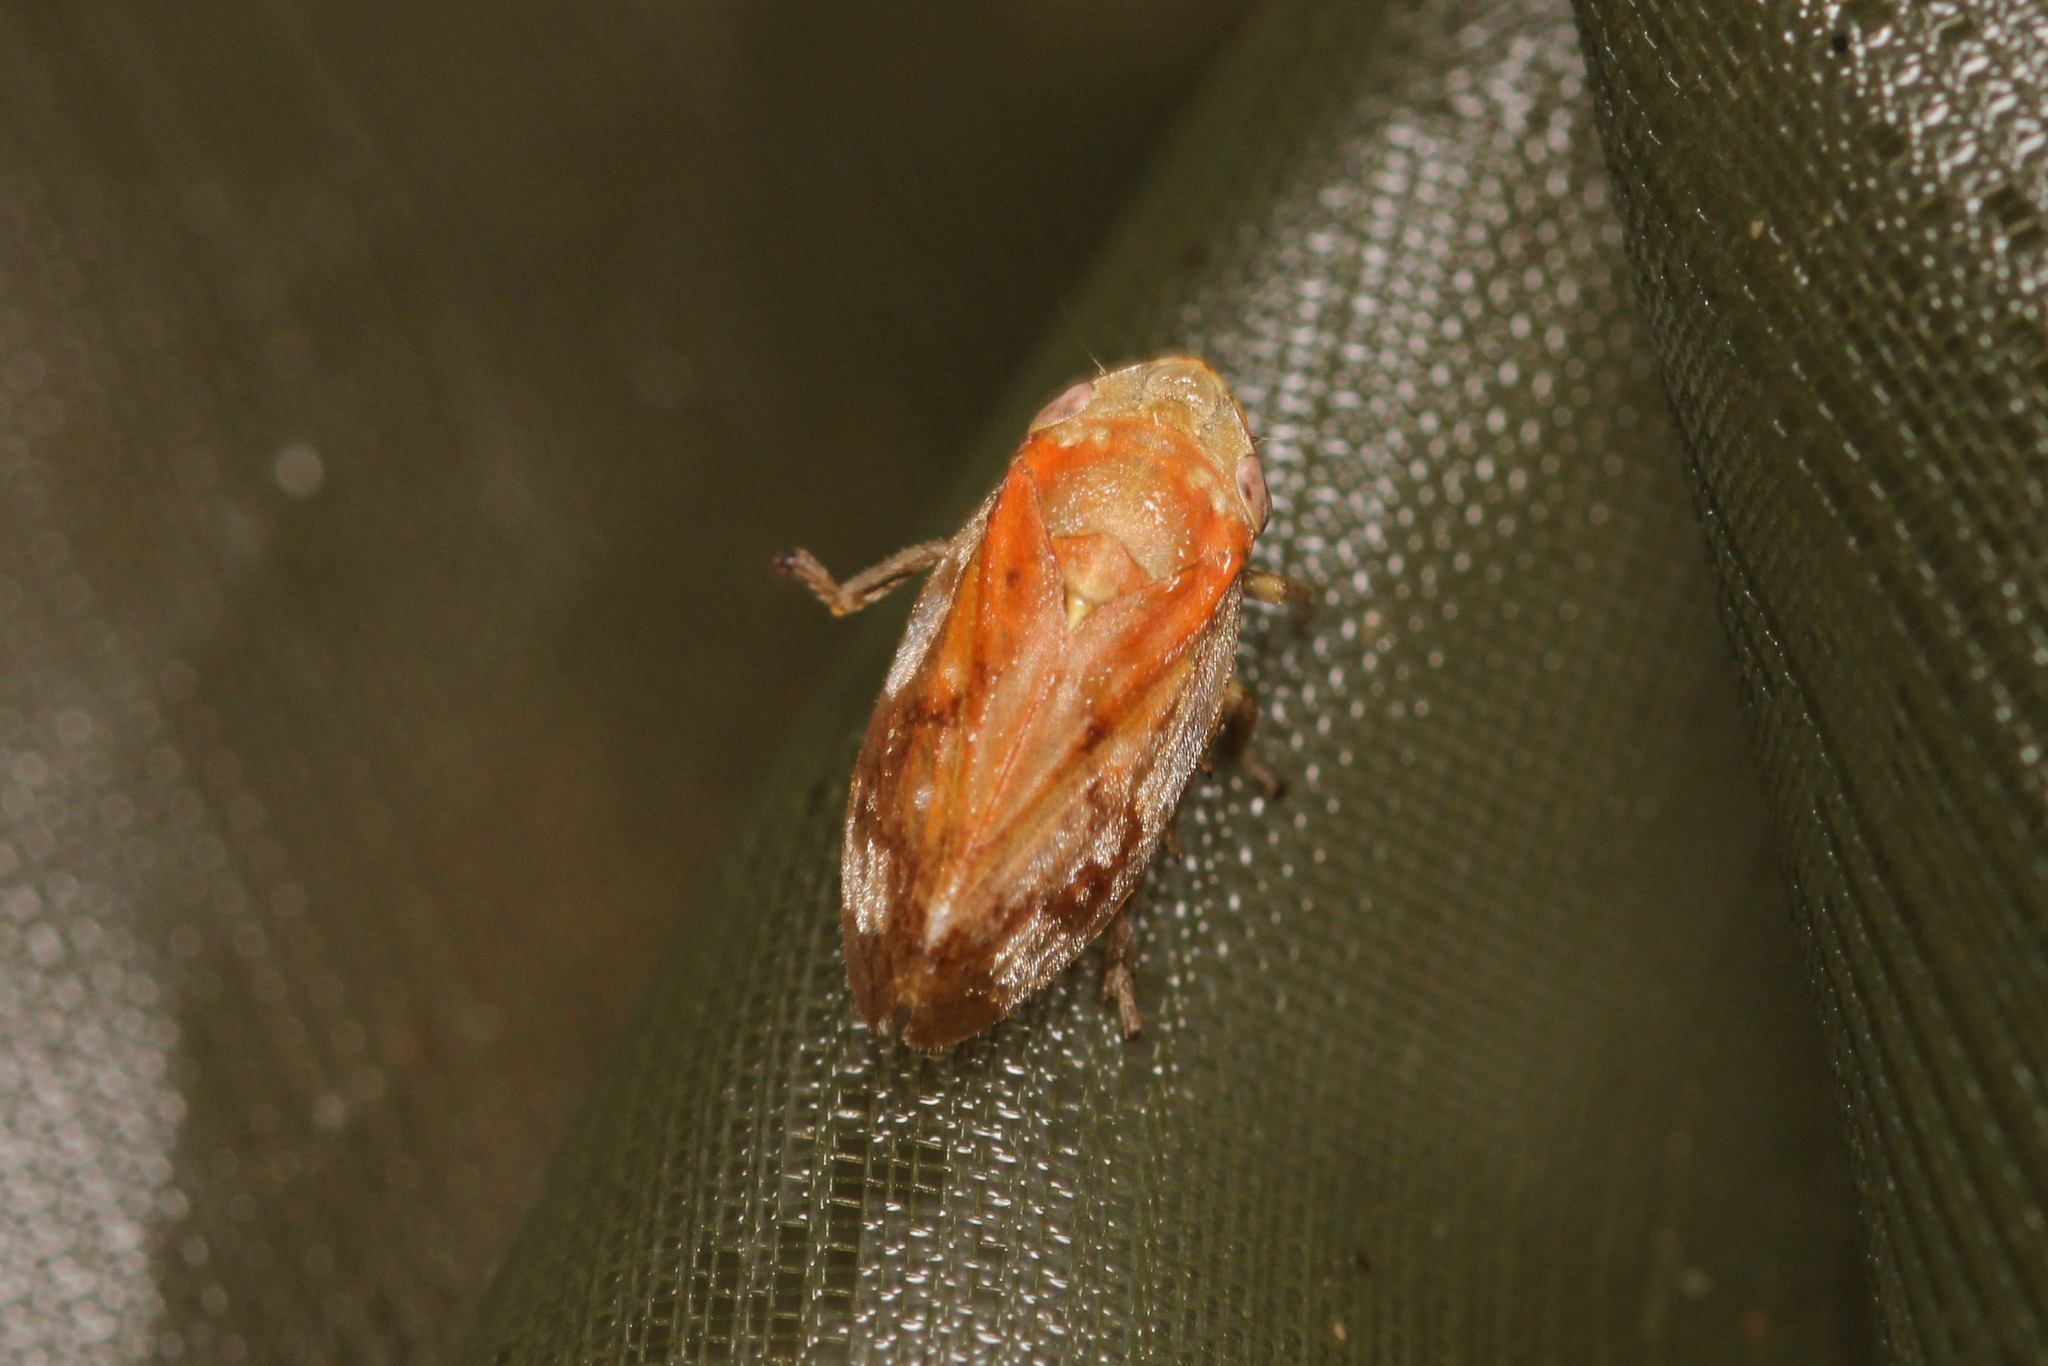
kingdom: Animalia
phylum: Arthropoda
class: Insecta
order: Hemiptera
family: Aphrophoridae
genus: Philaenus
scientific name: Philaenus spumarius
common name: Meadow spittlebug
